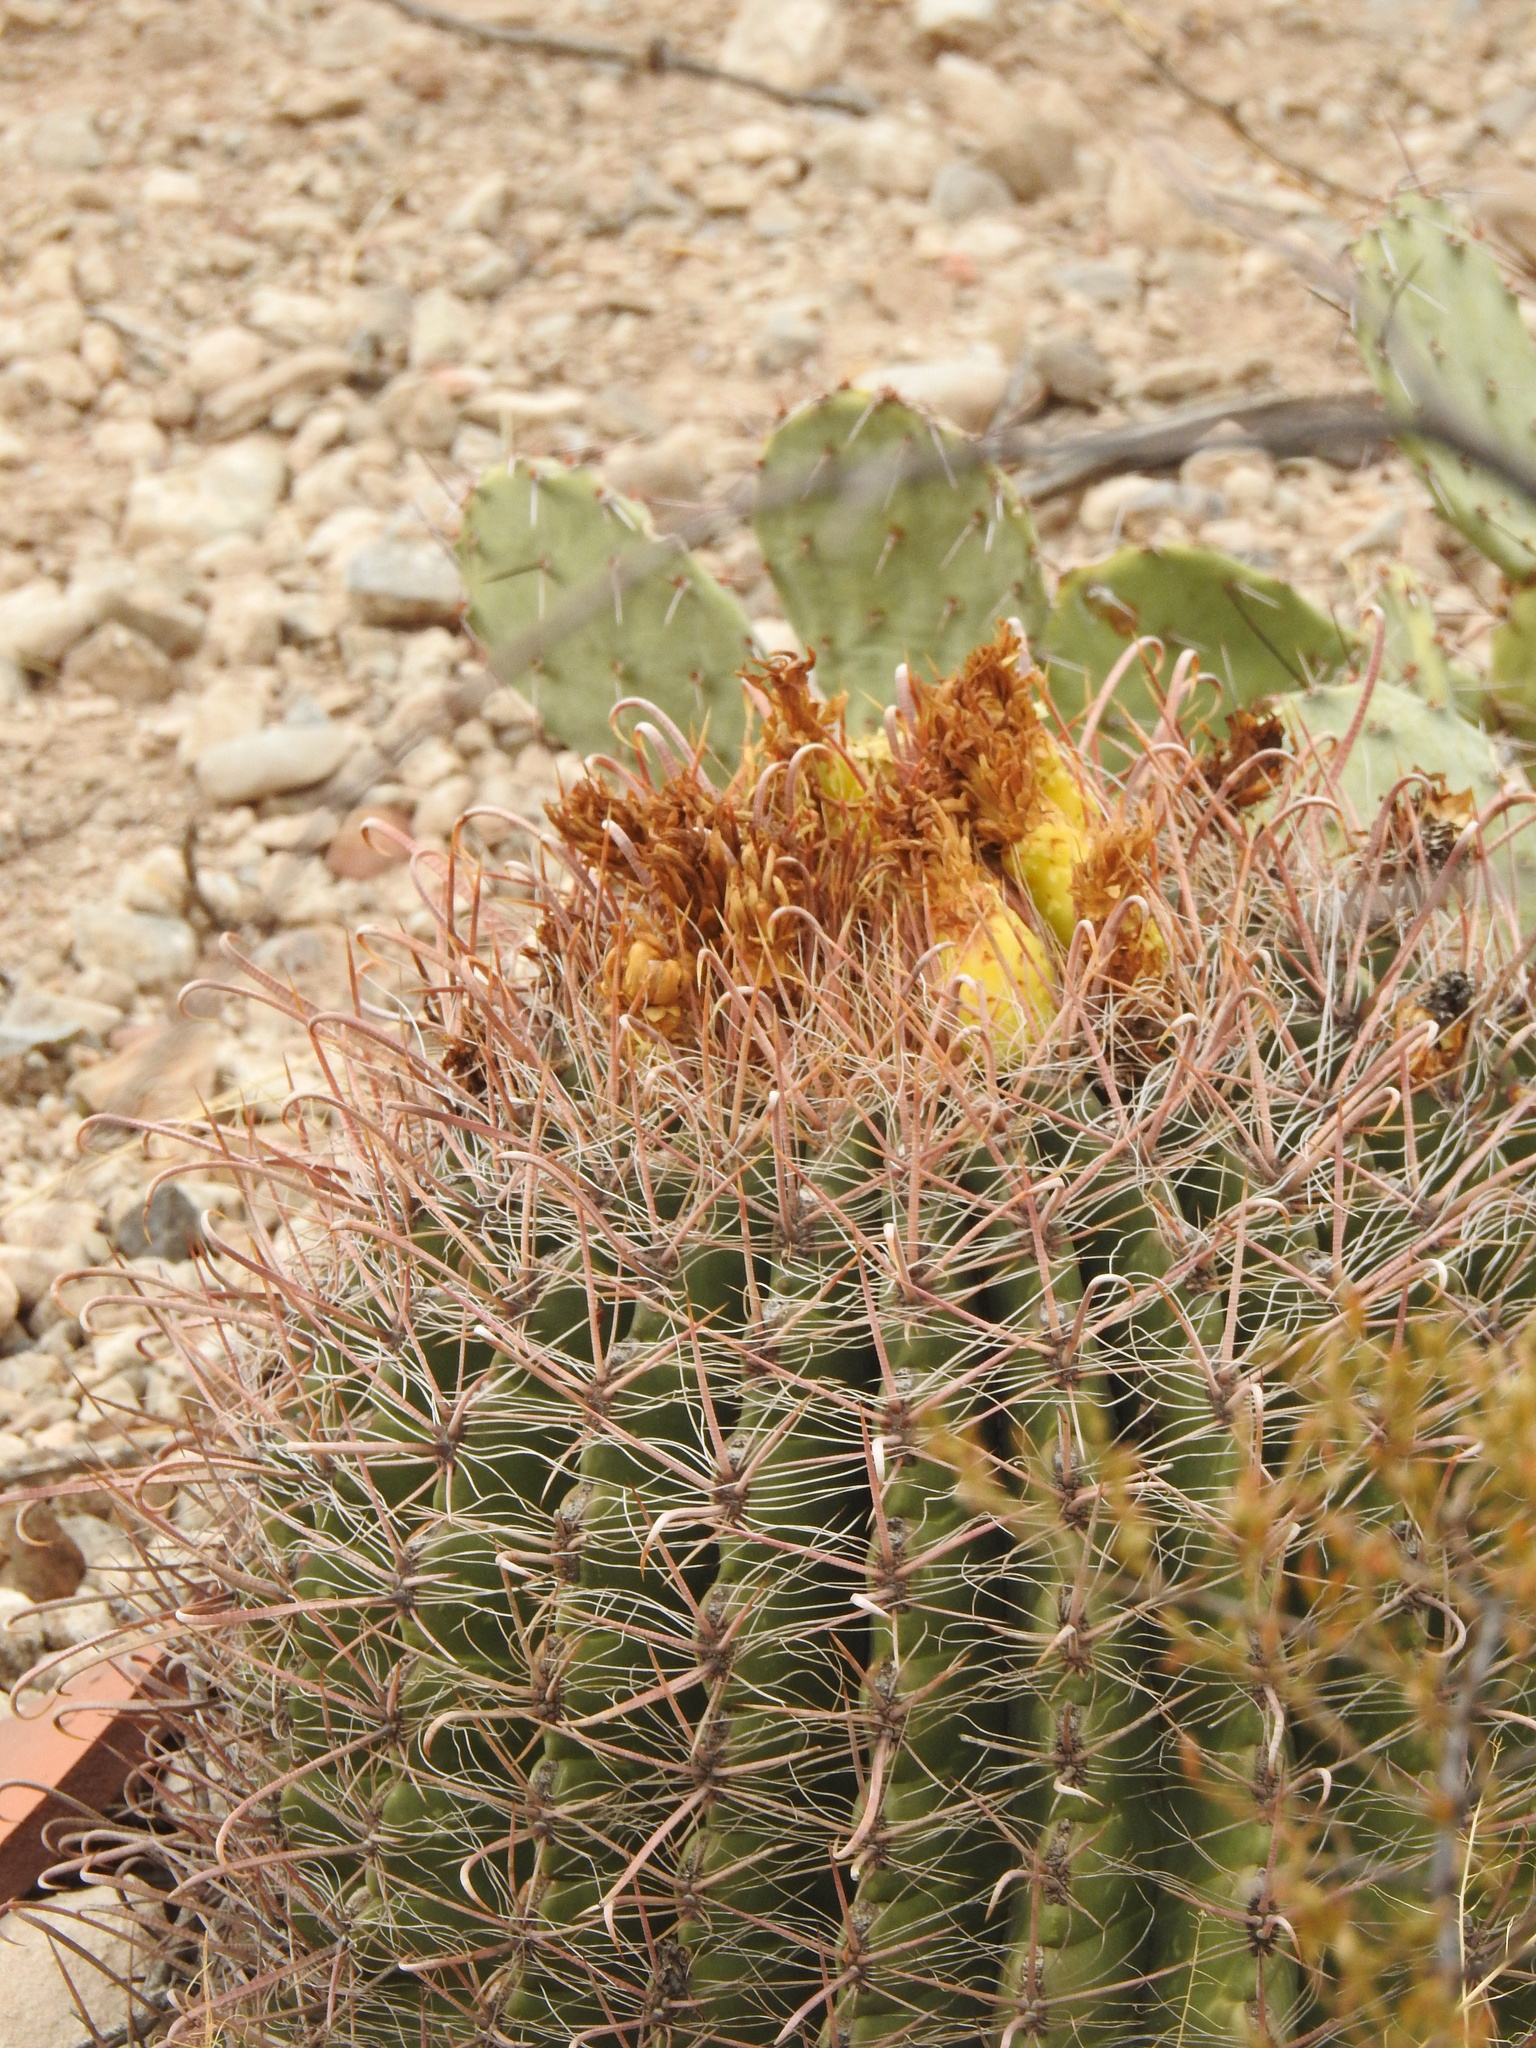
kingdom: Plantae
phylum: Tracheophyta
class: Magnoliopsida
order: Caryophyllales
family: Cactaceae
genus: Ferocactus
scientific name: Ferocactus wislizeni
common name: Candy barrel cactus
